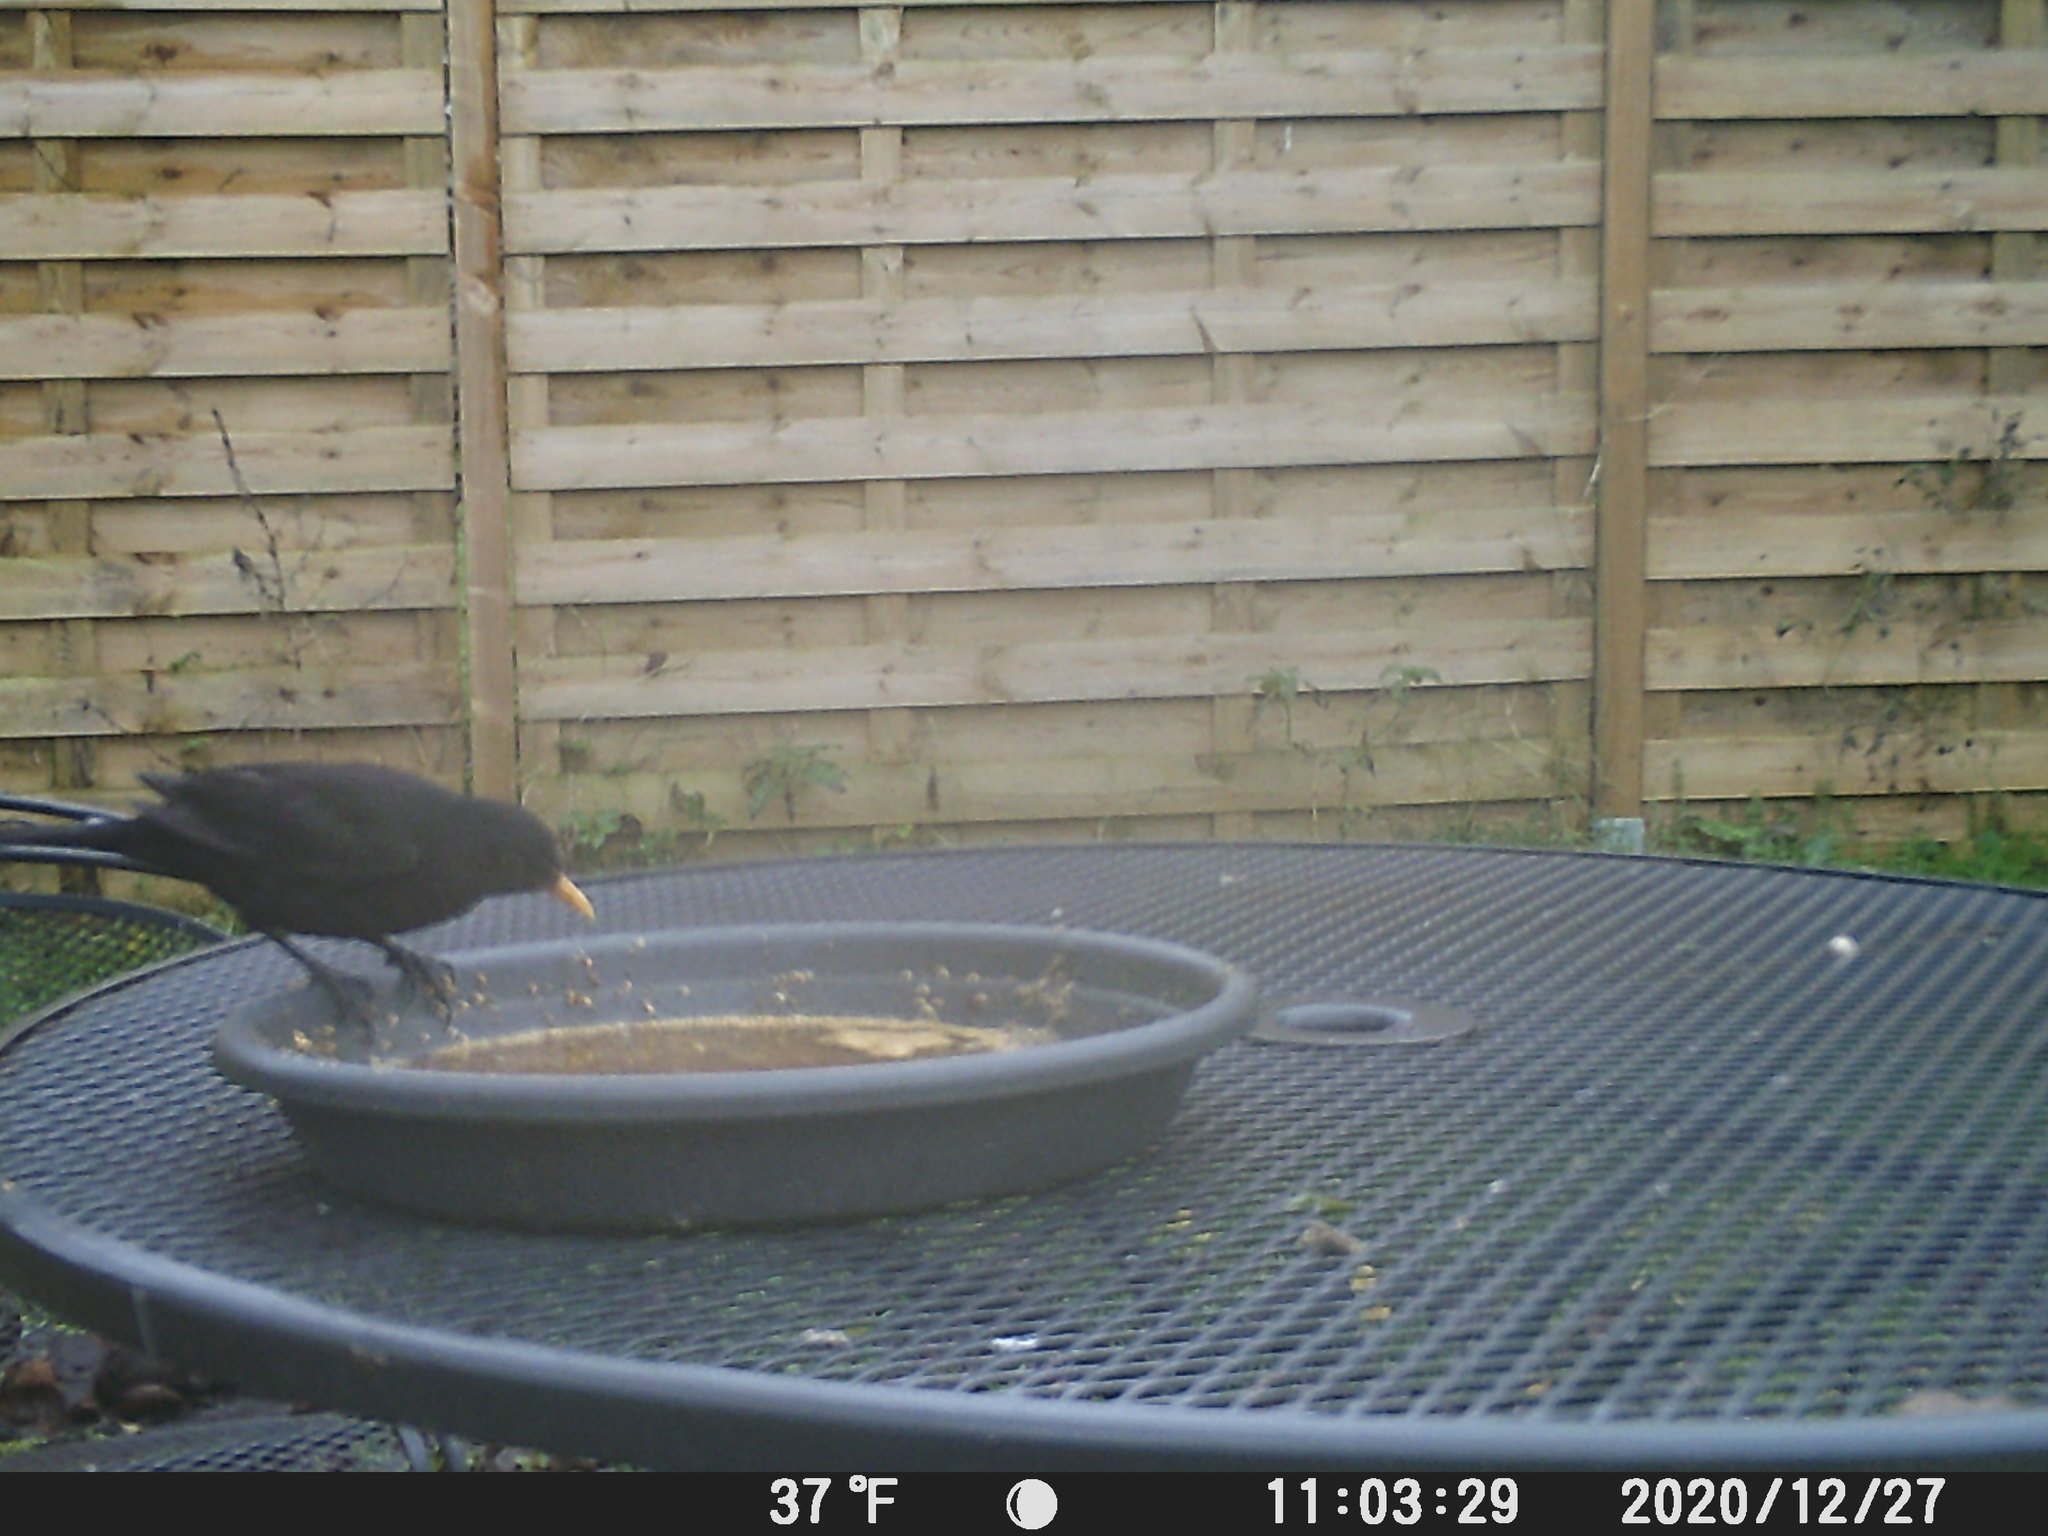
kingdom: Animalia
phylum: Chordata
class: Aves
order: Passeriformes
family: Turdidae
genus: Turdus
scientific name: Turdus merula
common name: Common blackbird
